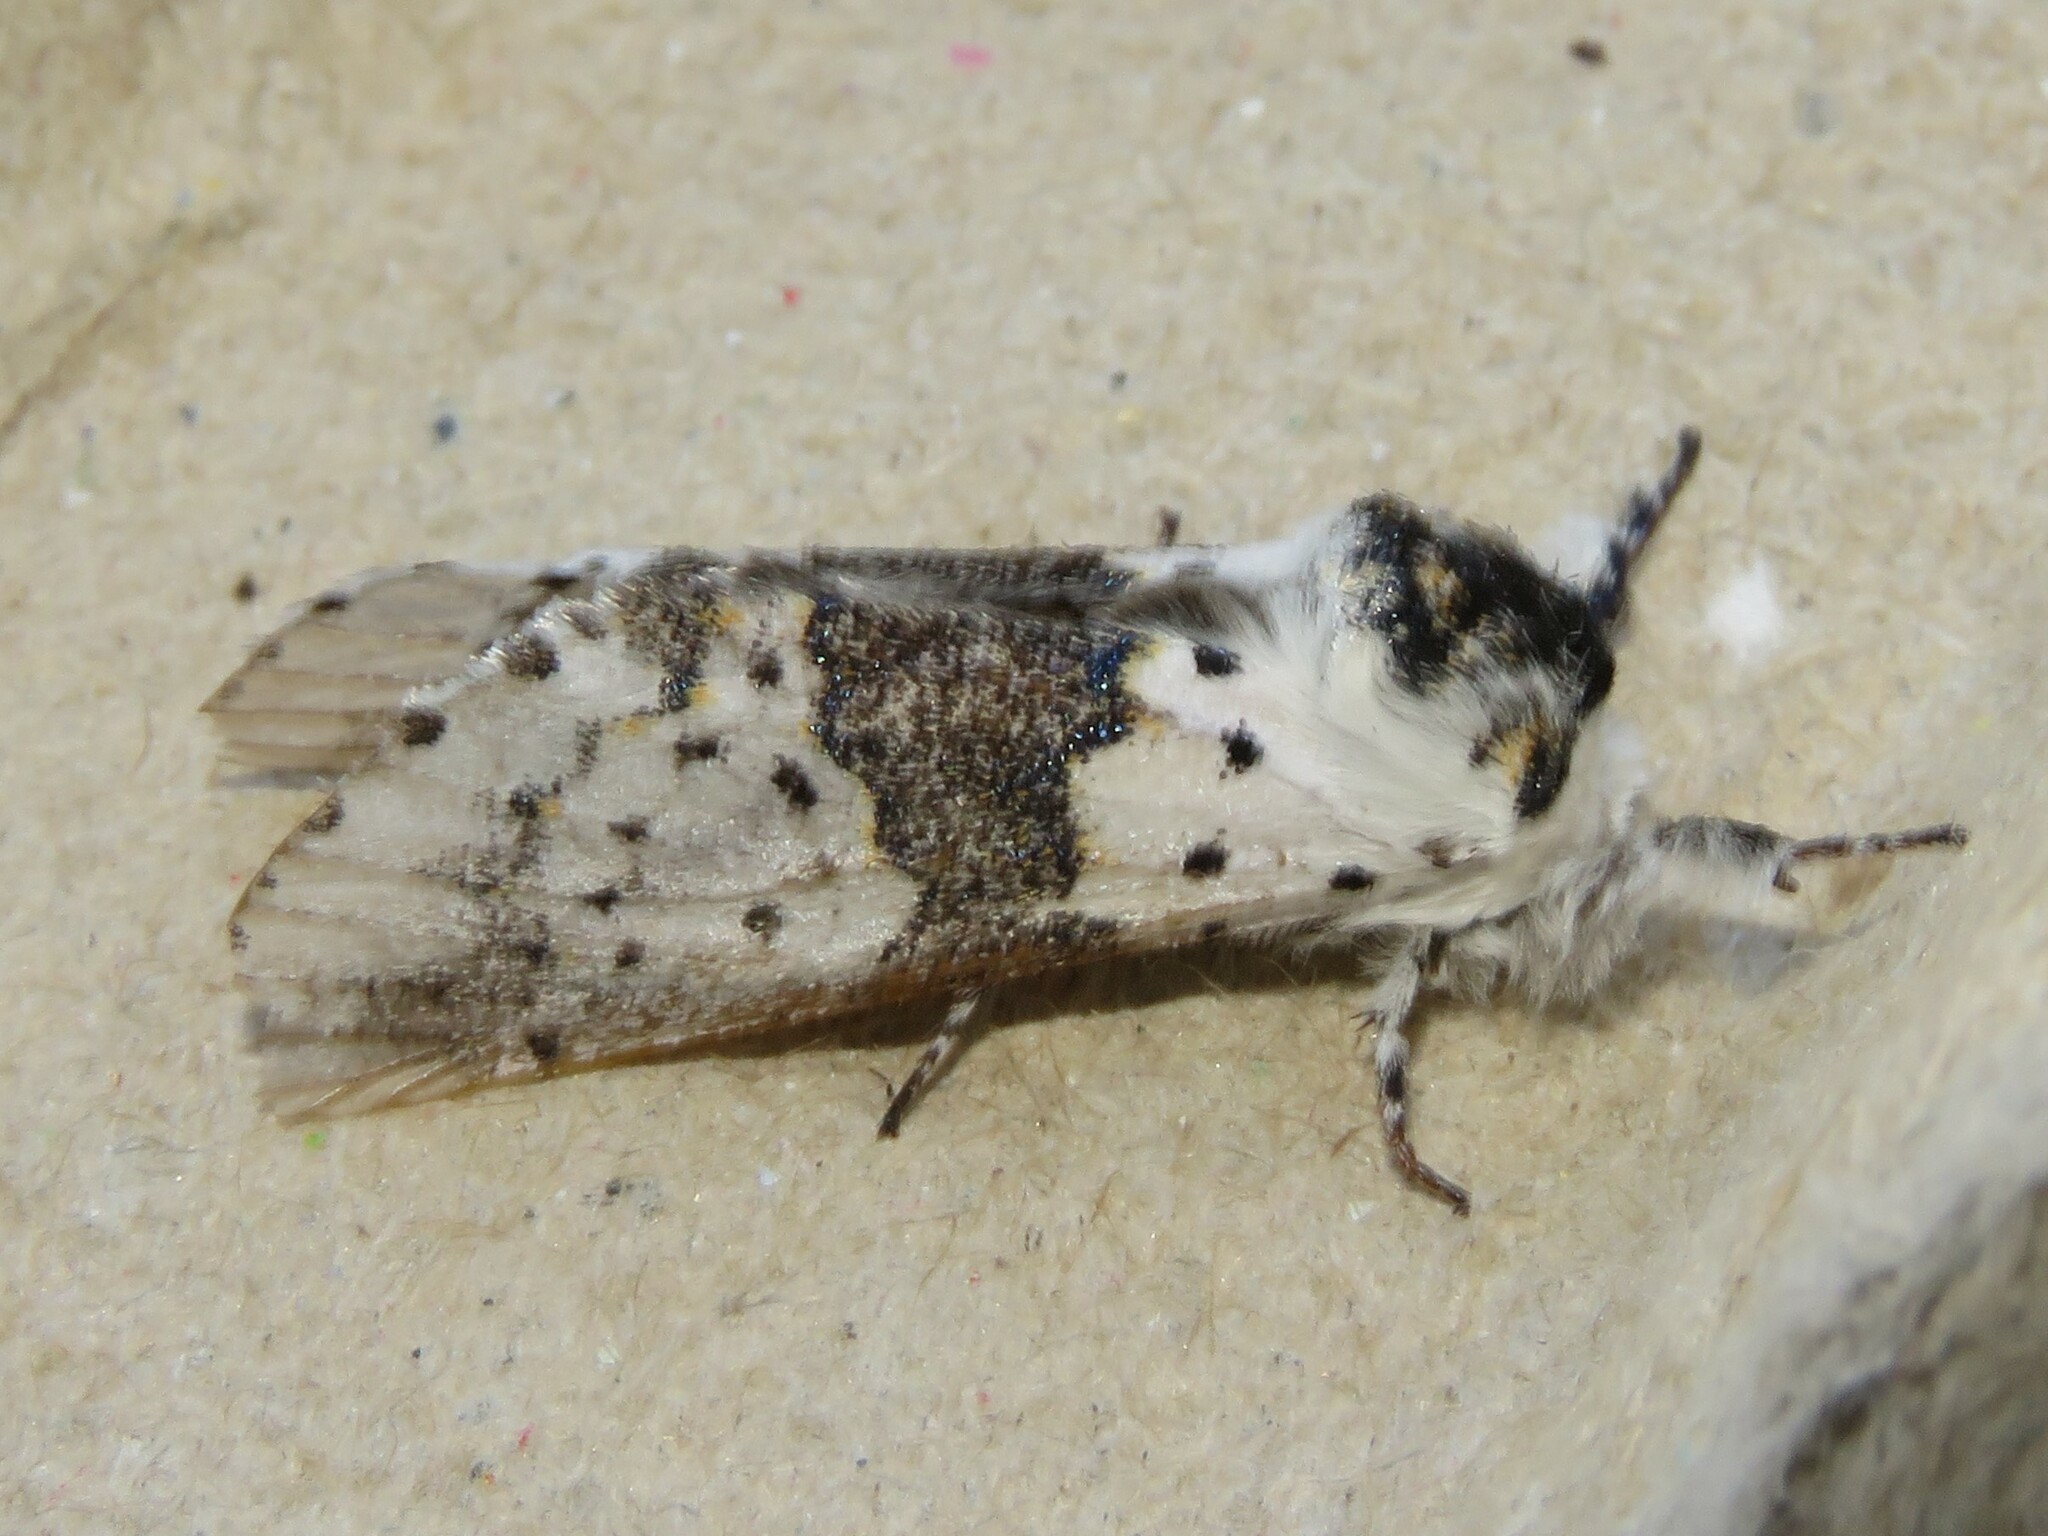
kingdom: Animalia
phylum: Arthropoda
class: Insecta
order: Lepidoptera
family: Notodontidae
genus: Furcula
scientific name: Furcula borealis
